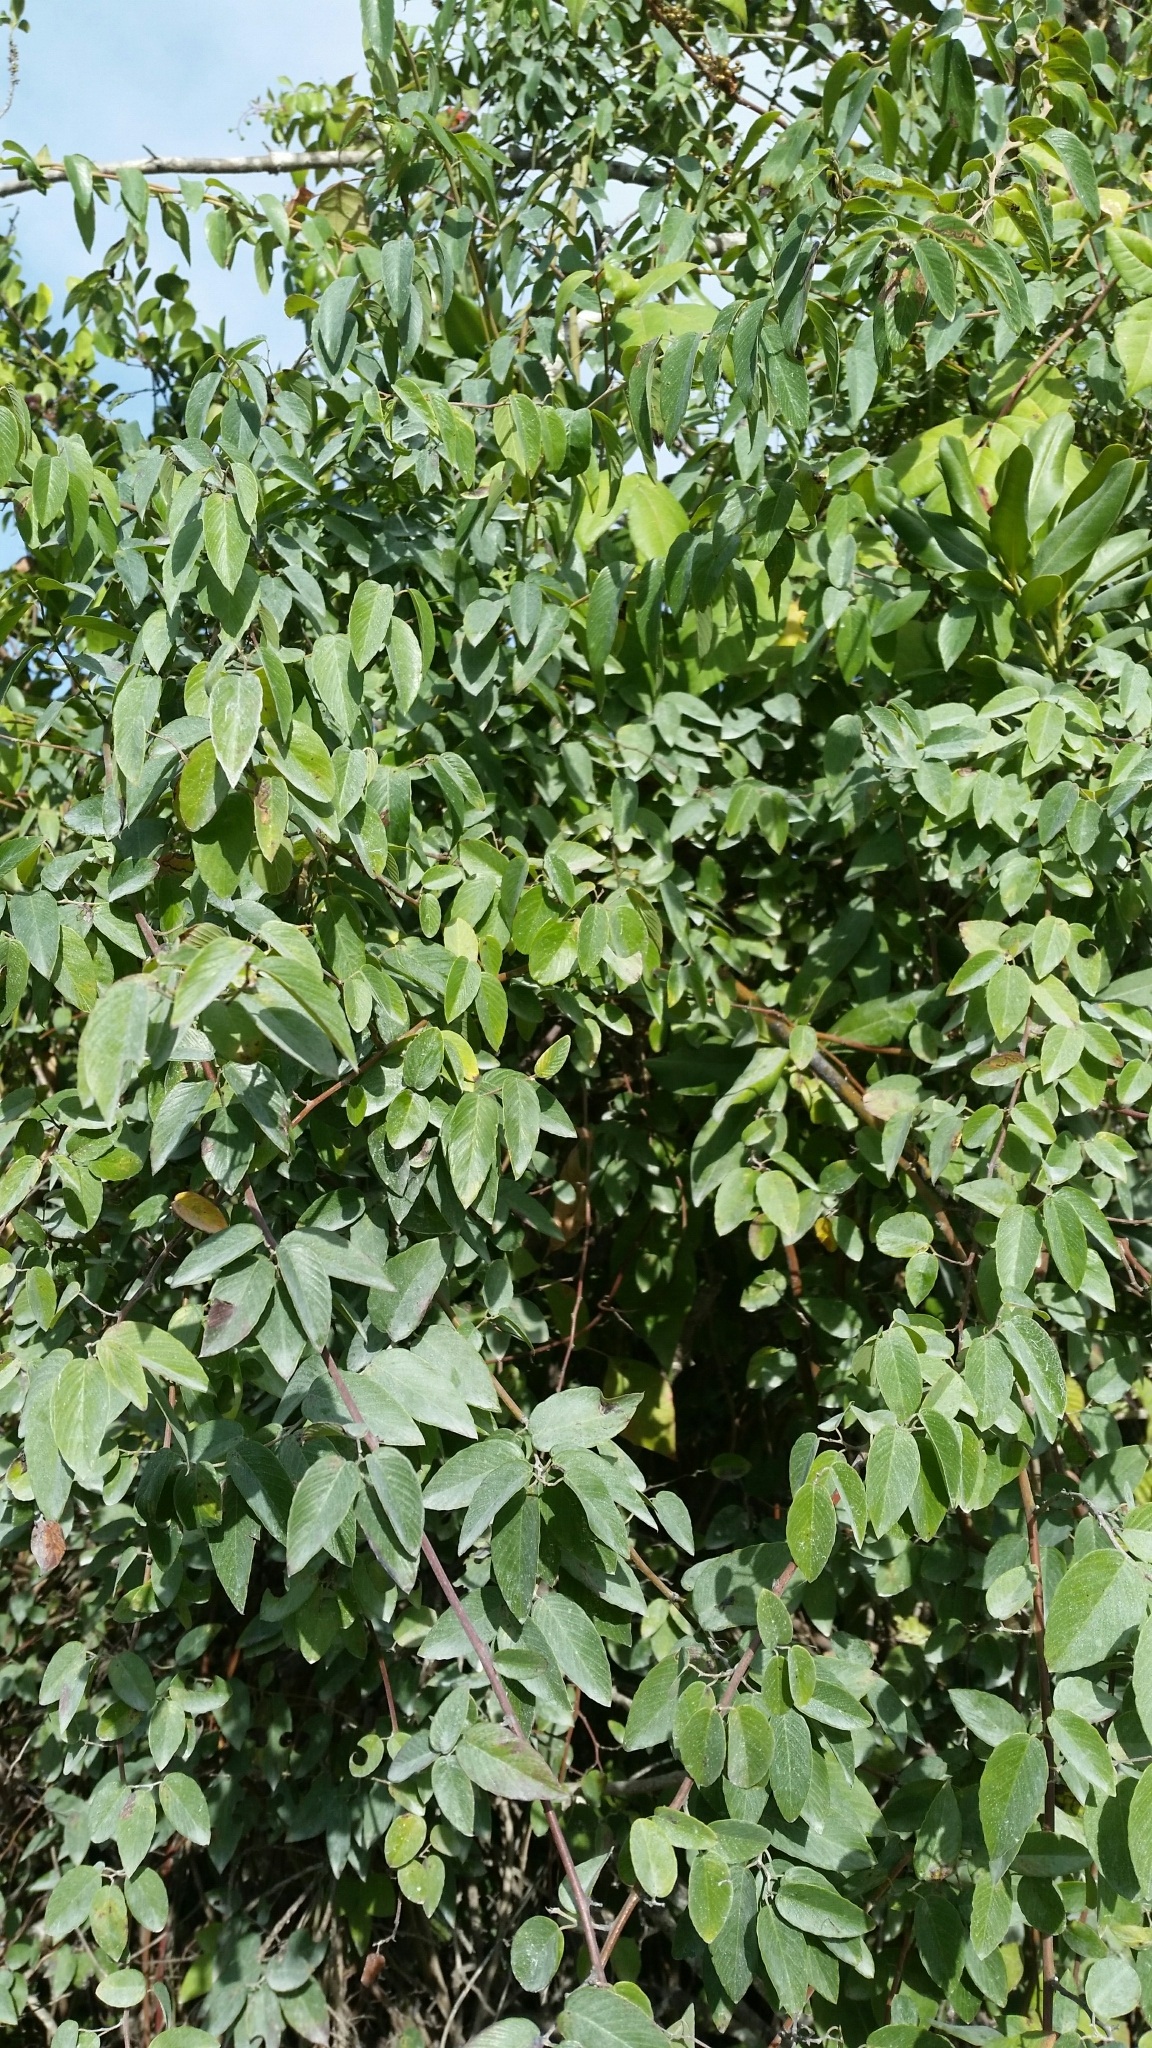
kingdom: Plantae
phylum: Tracheophyta
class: Magnoliopsida
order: Rosales
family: Rhamnaceae
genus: Berchemia
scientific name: Berchemia scandens
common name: Supplejack
